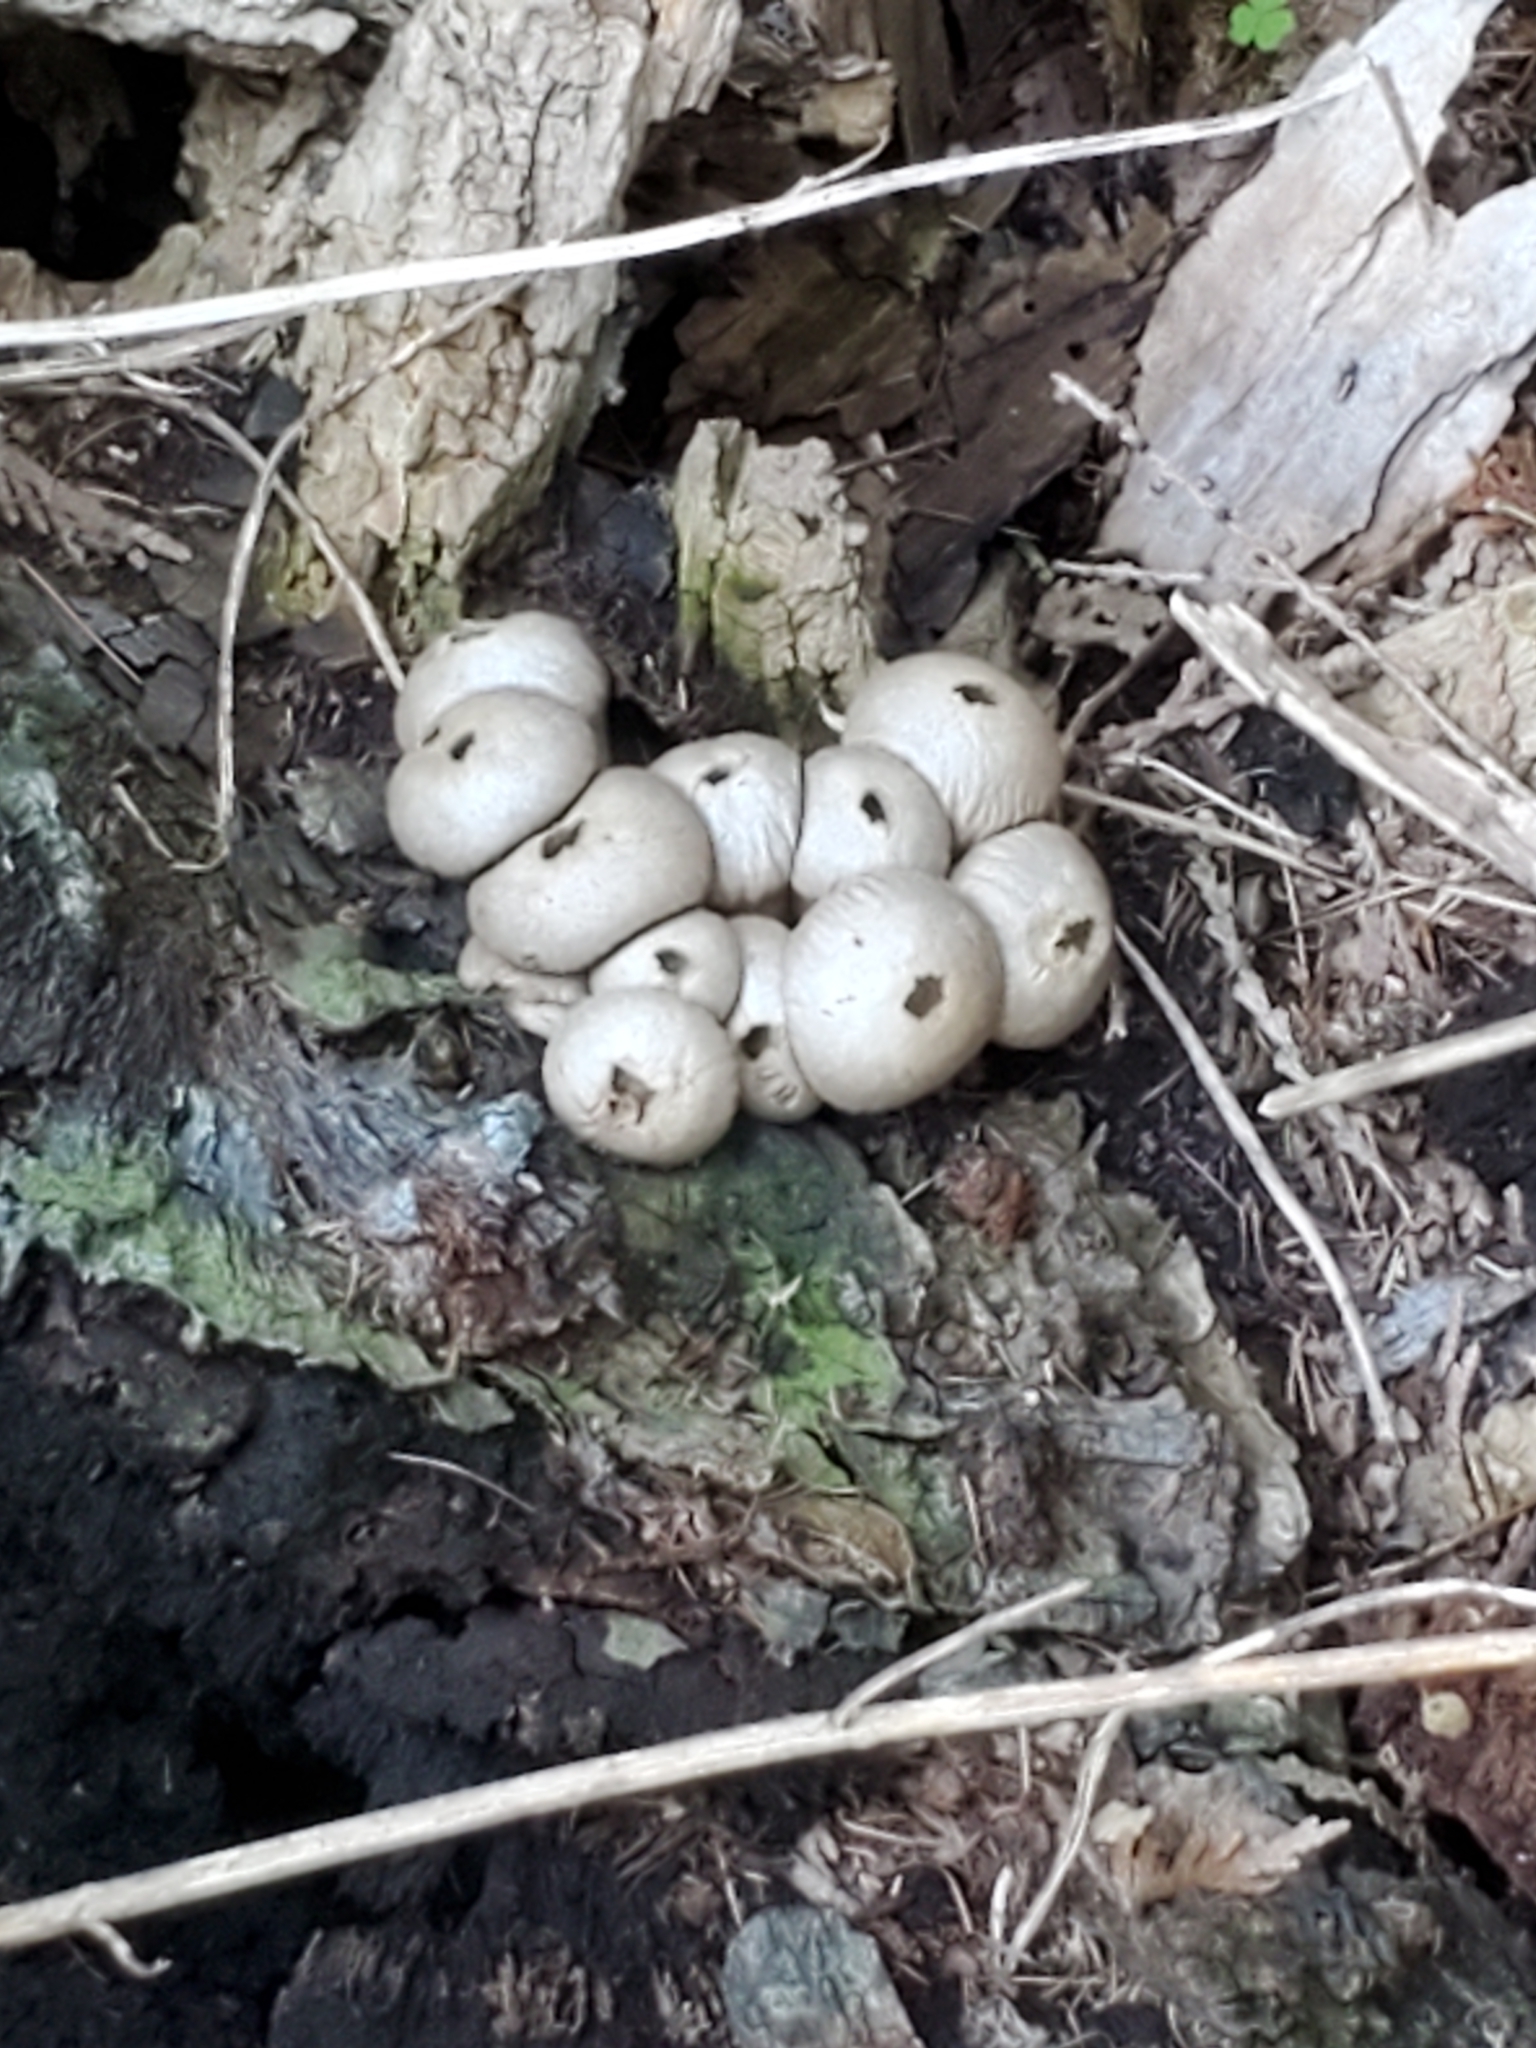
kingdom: Fungi
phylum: Basidiomycota
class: Agaricomycetes
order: Agaricales
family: Lycoperdaceae
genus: Apioperdon
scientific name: Apioperdon pyriforme
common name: Pear-shaped puffball
